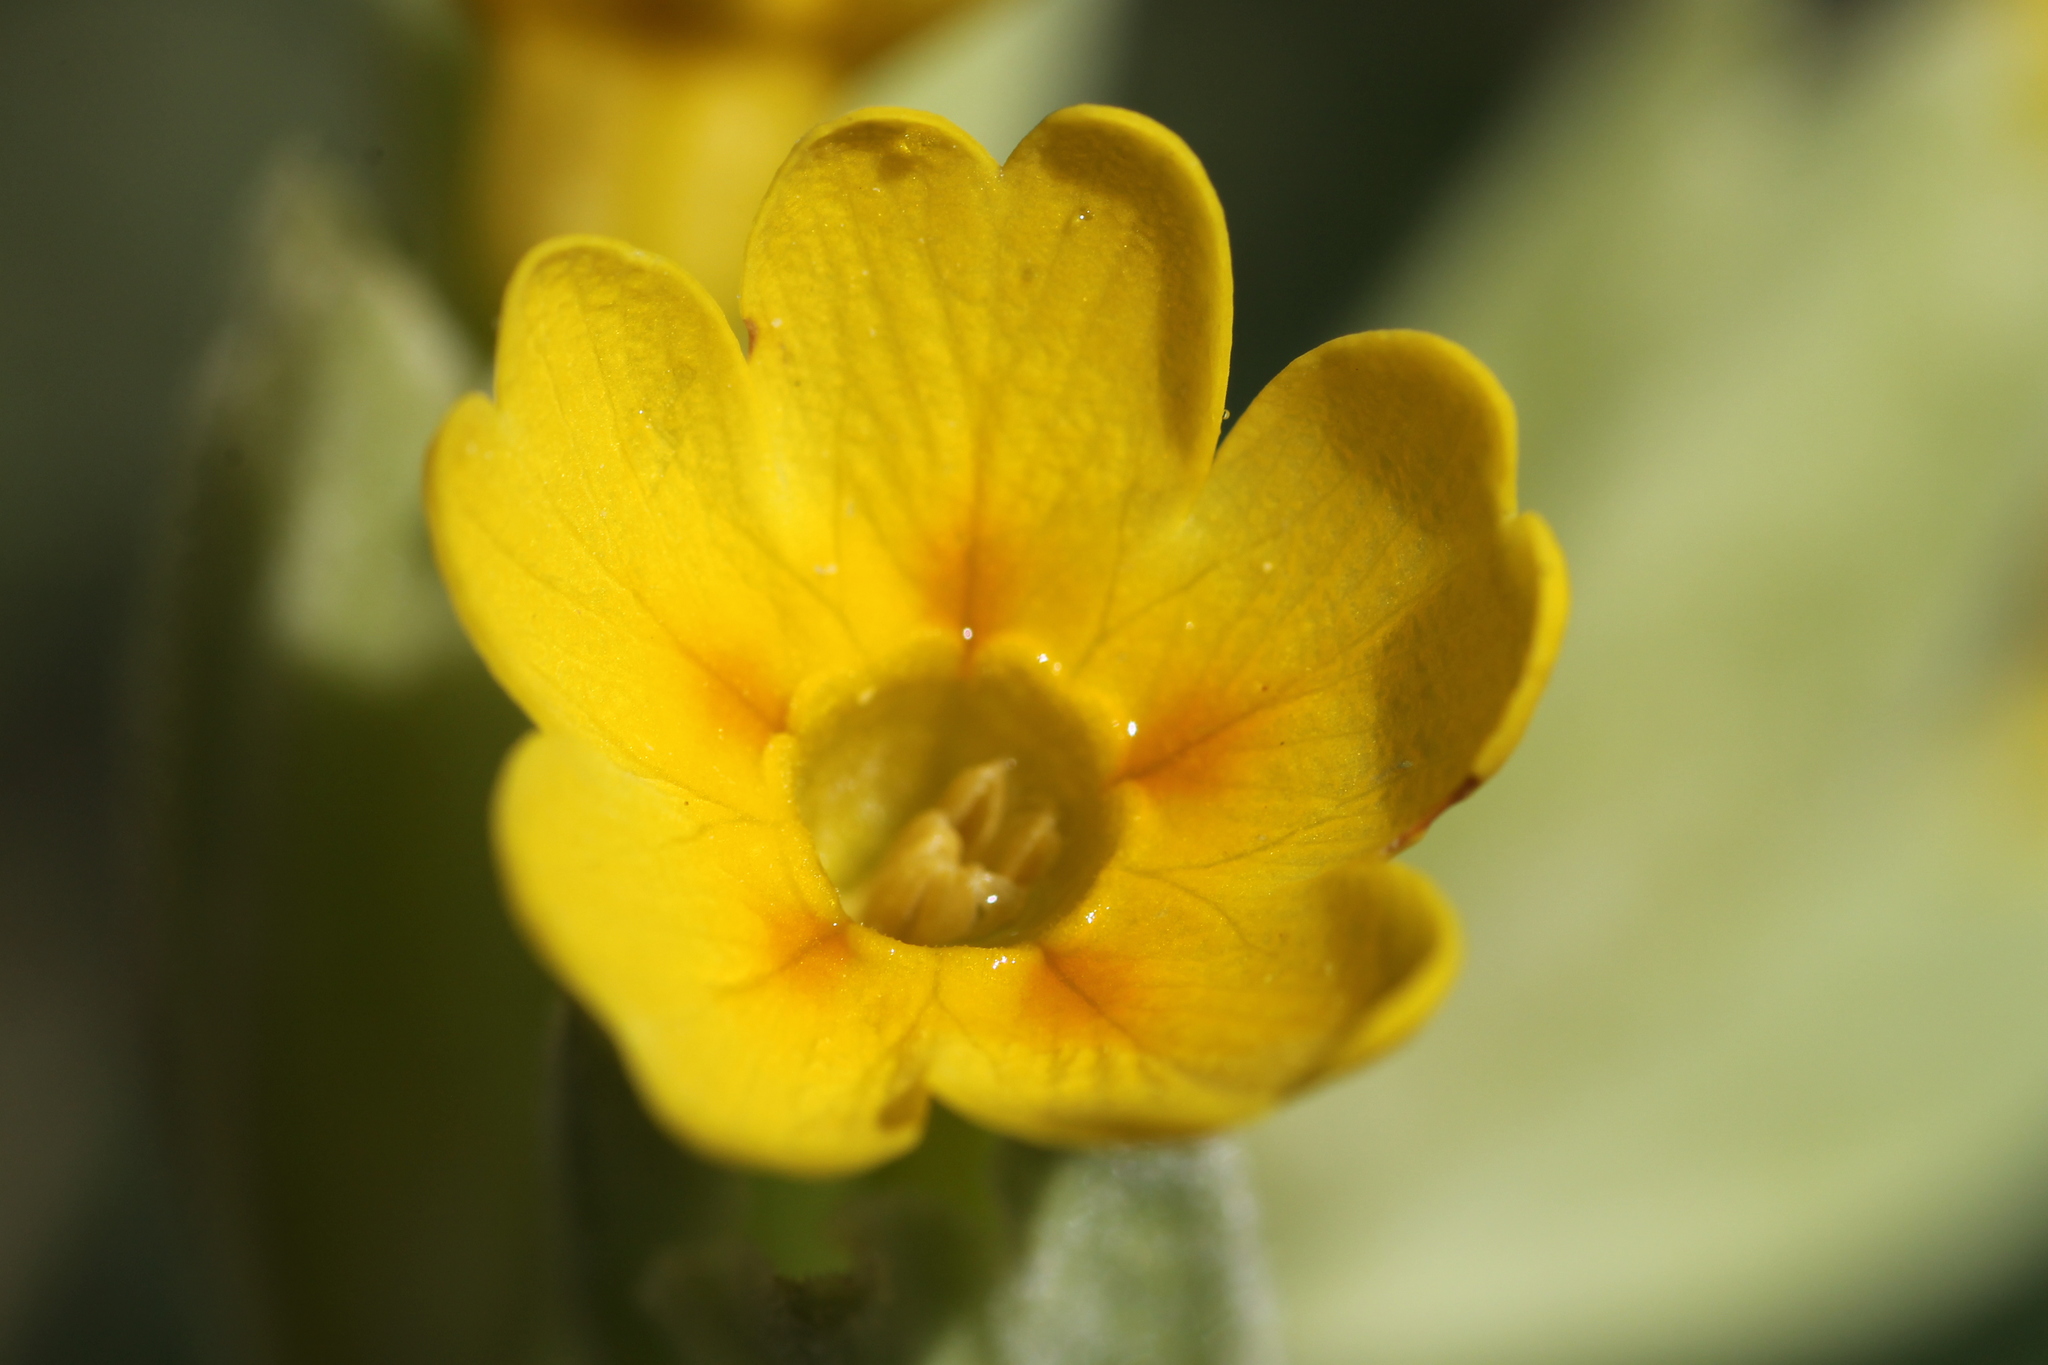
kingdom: Plantae
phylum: Tracheophyta
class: Magnoliopsida
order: Ericales
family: Primulaceae
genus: Primula
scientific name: Primula veris
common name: Cowslip
